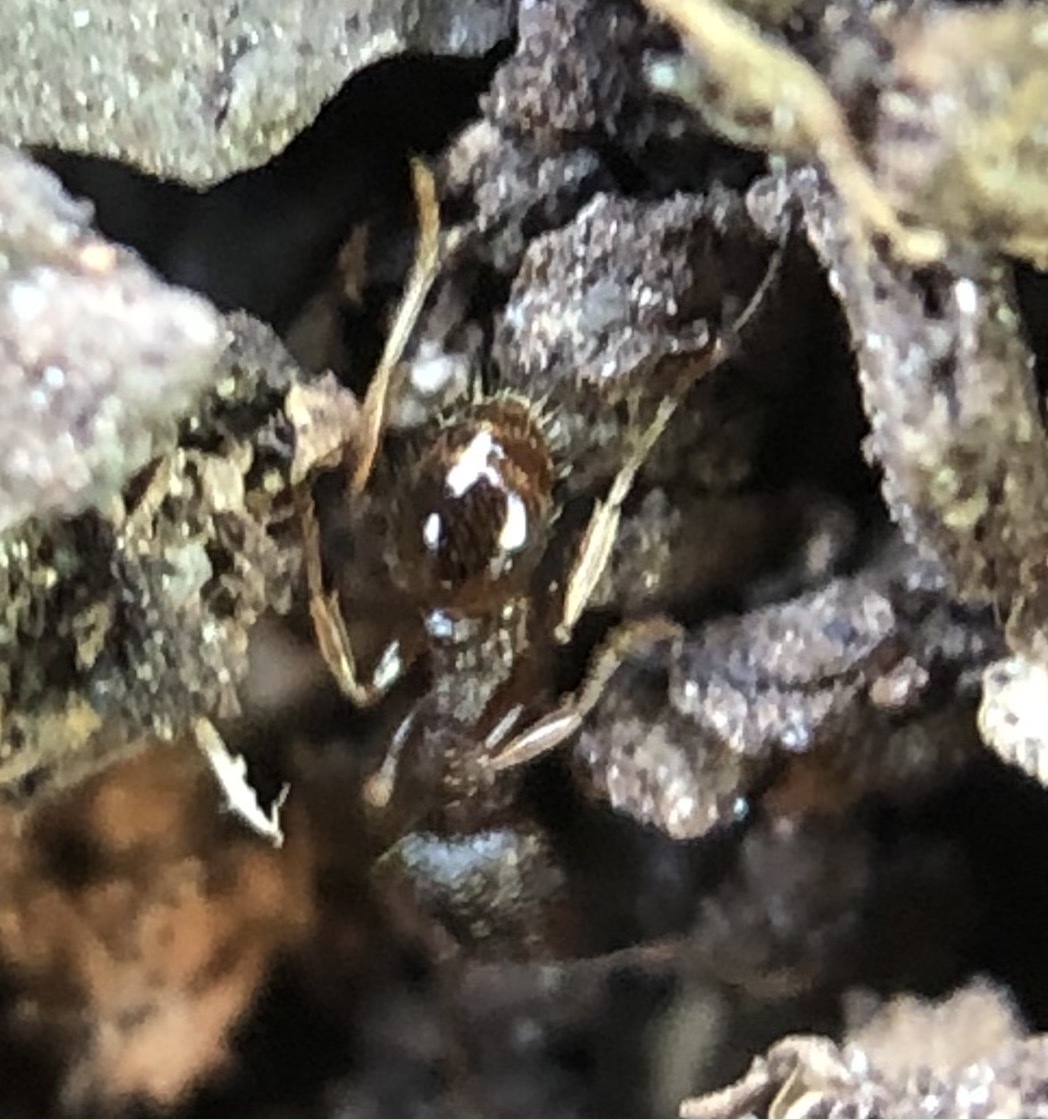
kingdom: Animalia
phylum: Arthropoda
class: Insecta
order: Hymenoptera
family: Formicidae
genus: Tetramorium
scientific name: Tetramorium immigrans
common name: Pavement ant
